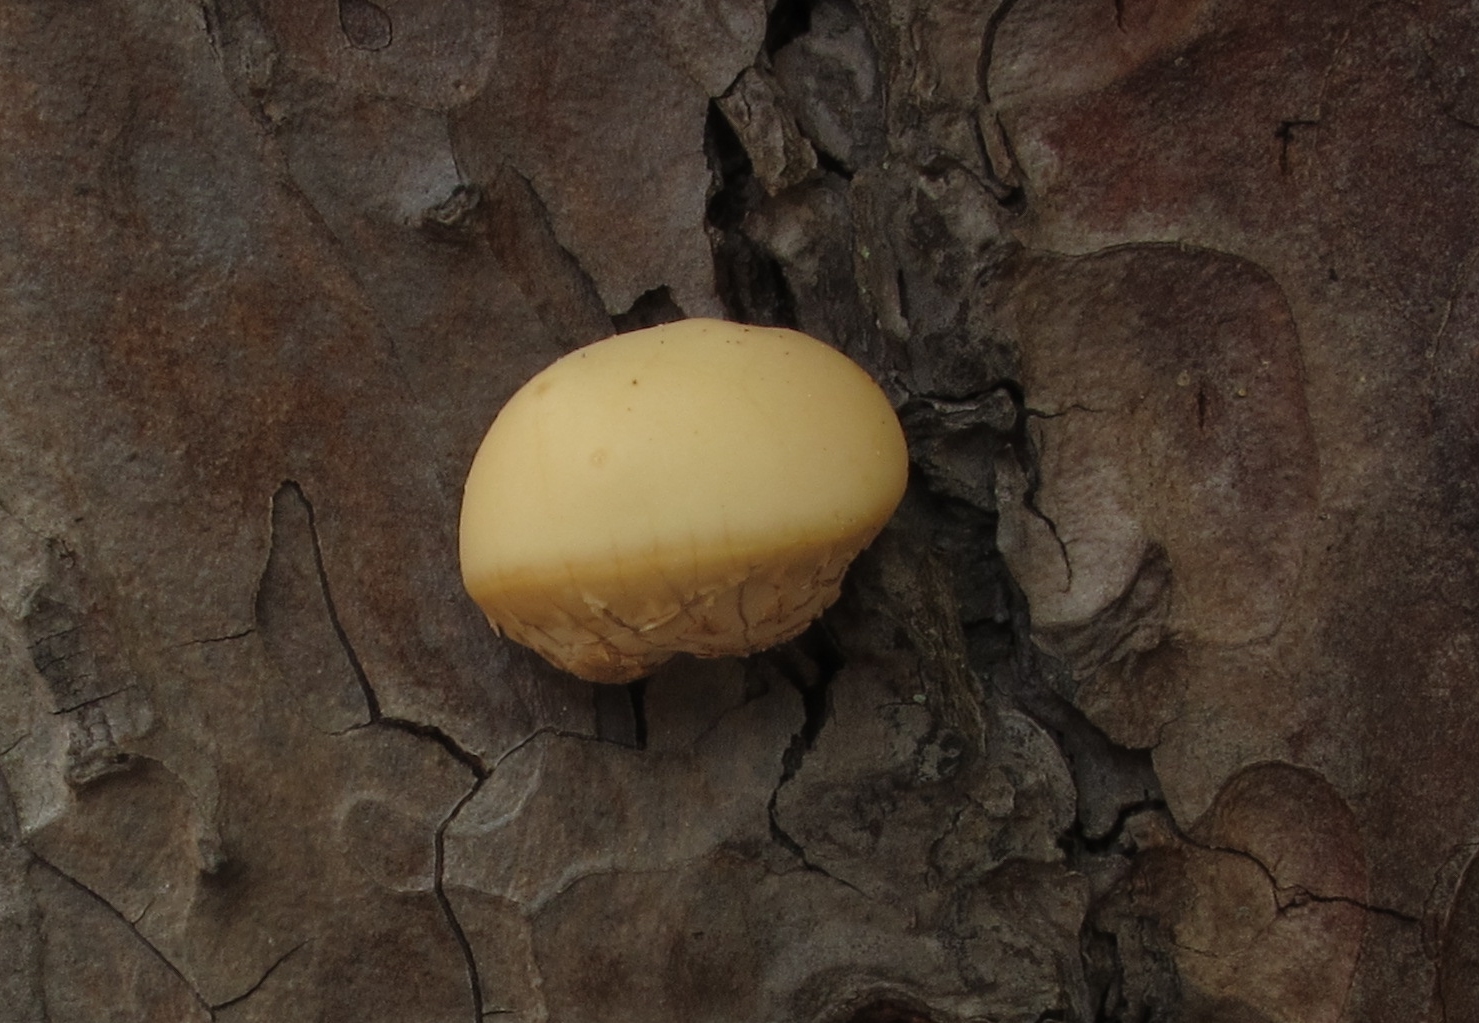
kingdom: Fungi
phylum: Basidiomycota
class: Agaricomycetes
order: Polyporales
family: Polyporaceae
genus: Cryptoporus
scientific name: Cryptoporus volvatus
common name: Veiled polypore
